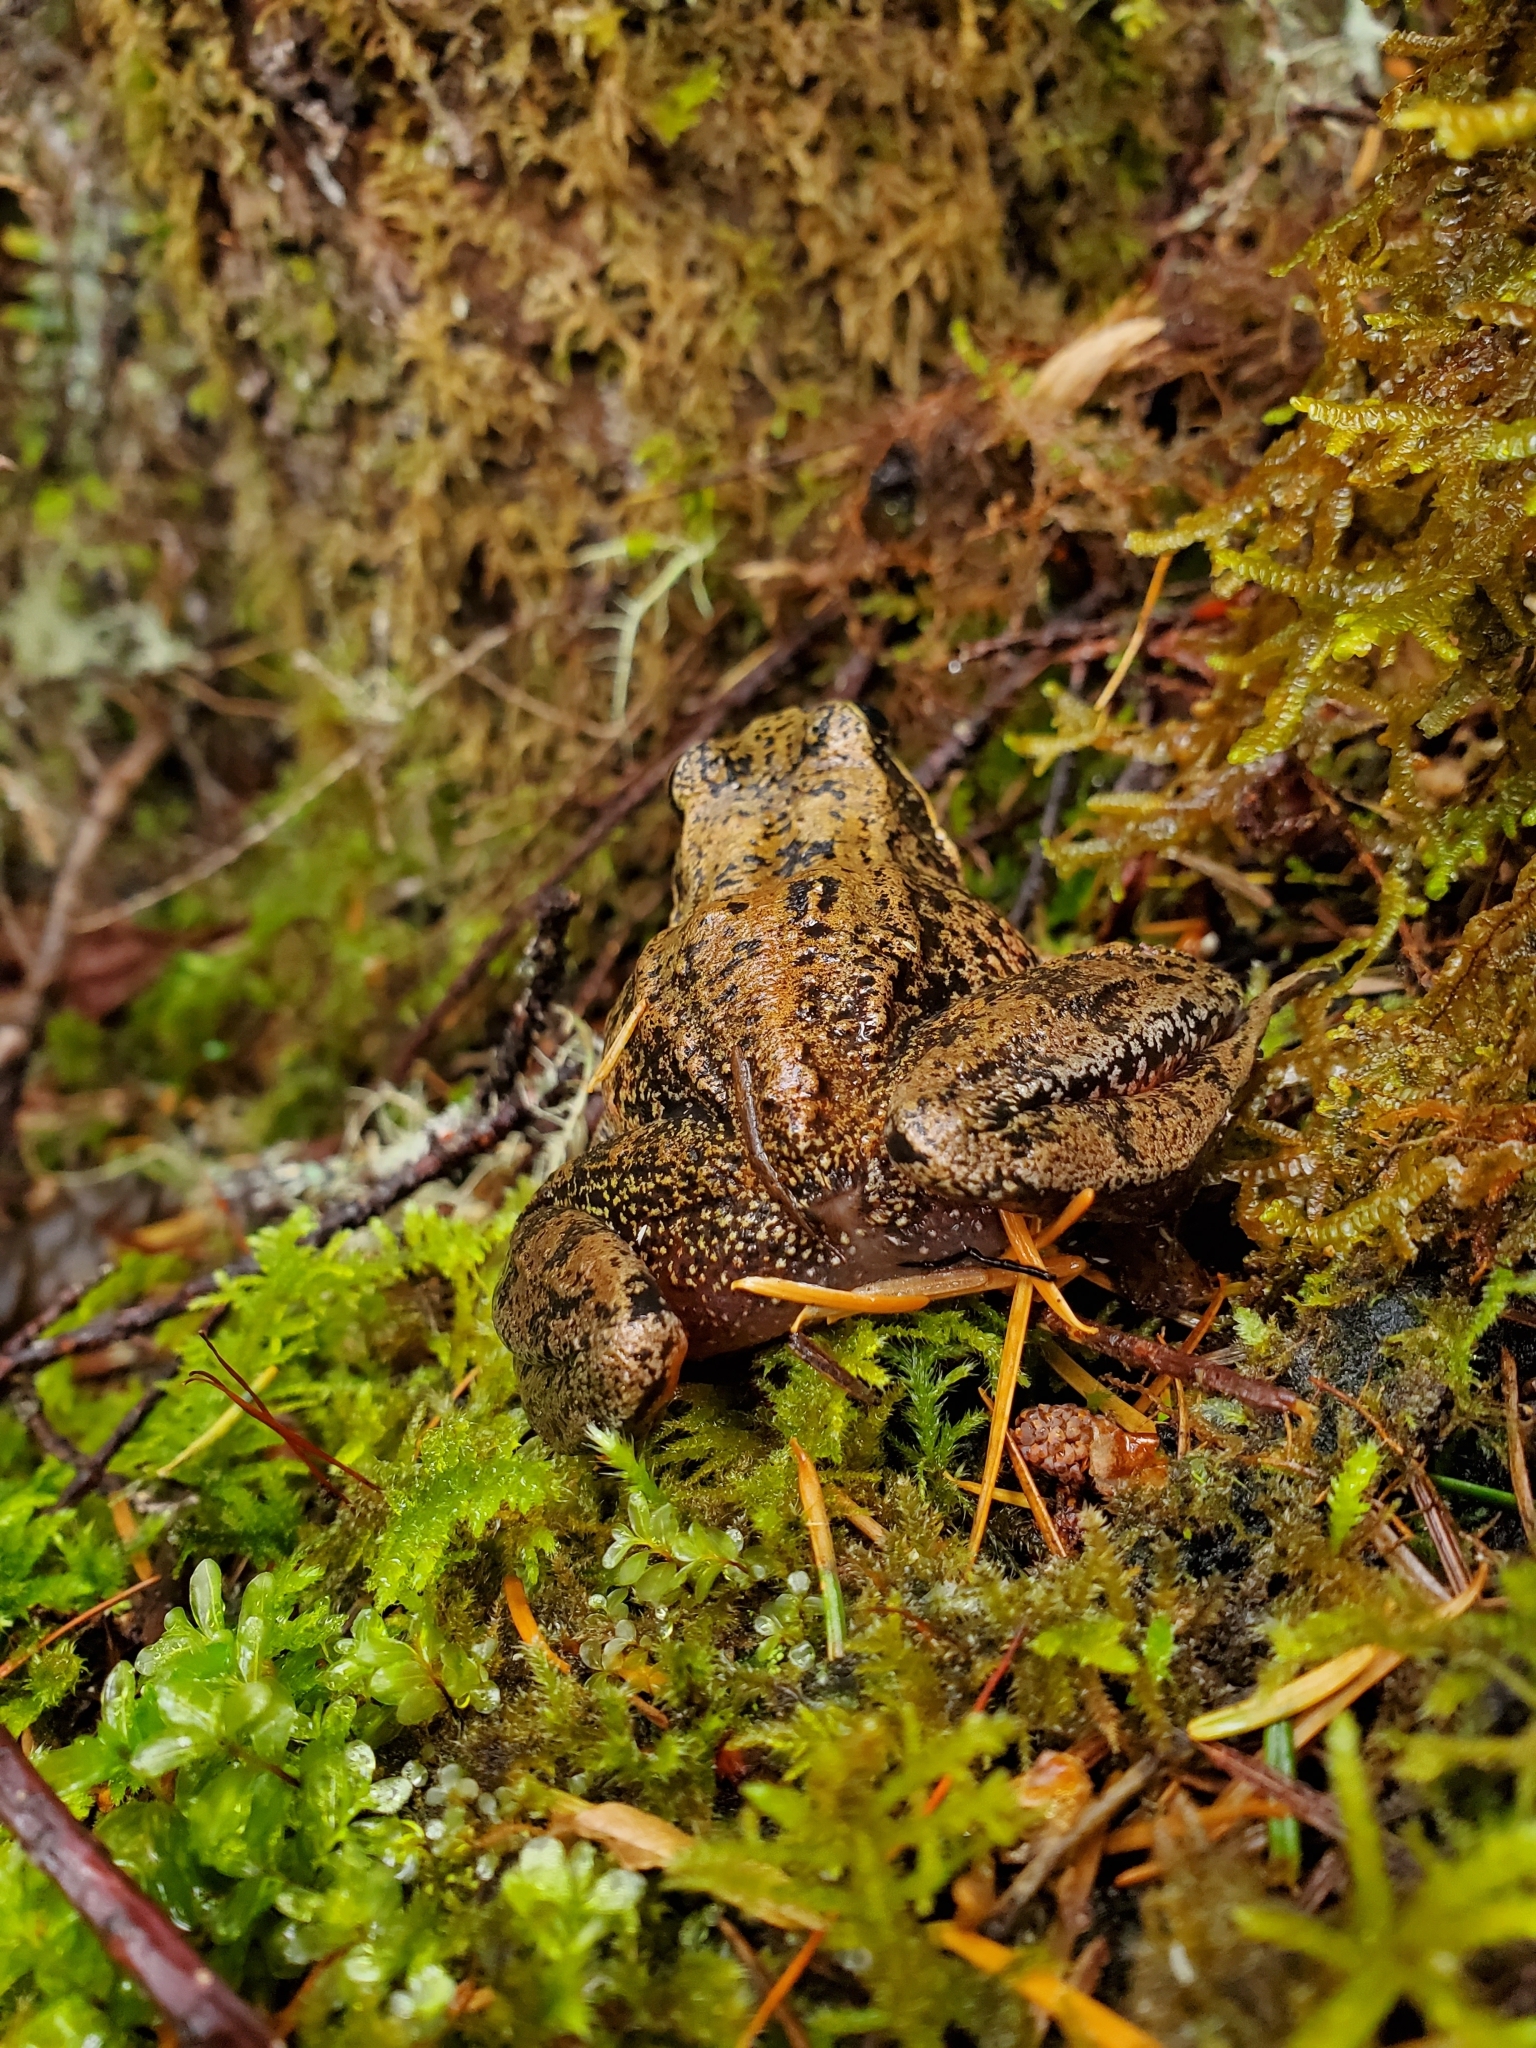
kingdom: Animalia
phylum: Chordata
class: Amphibia
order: Anura
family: Ranidae
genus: Rana
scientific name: Rana aurora
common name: Red-legged frog
